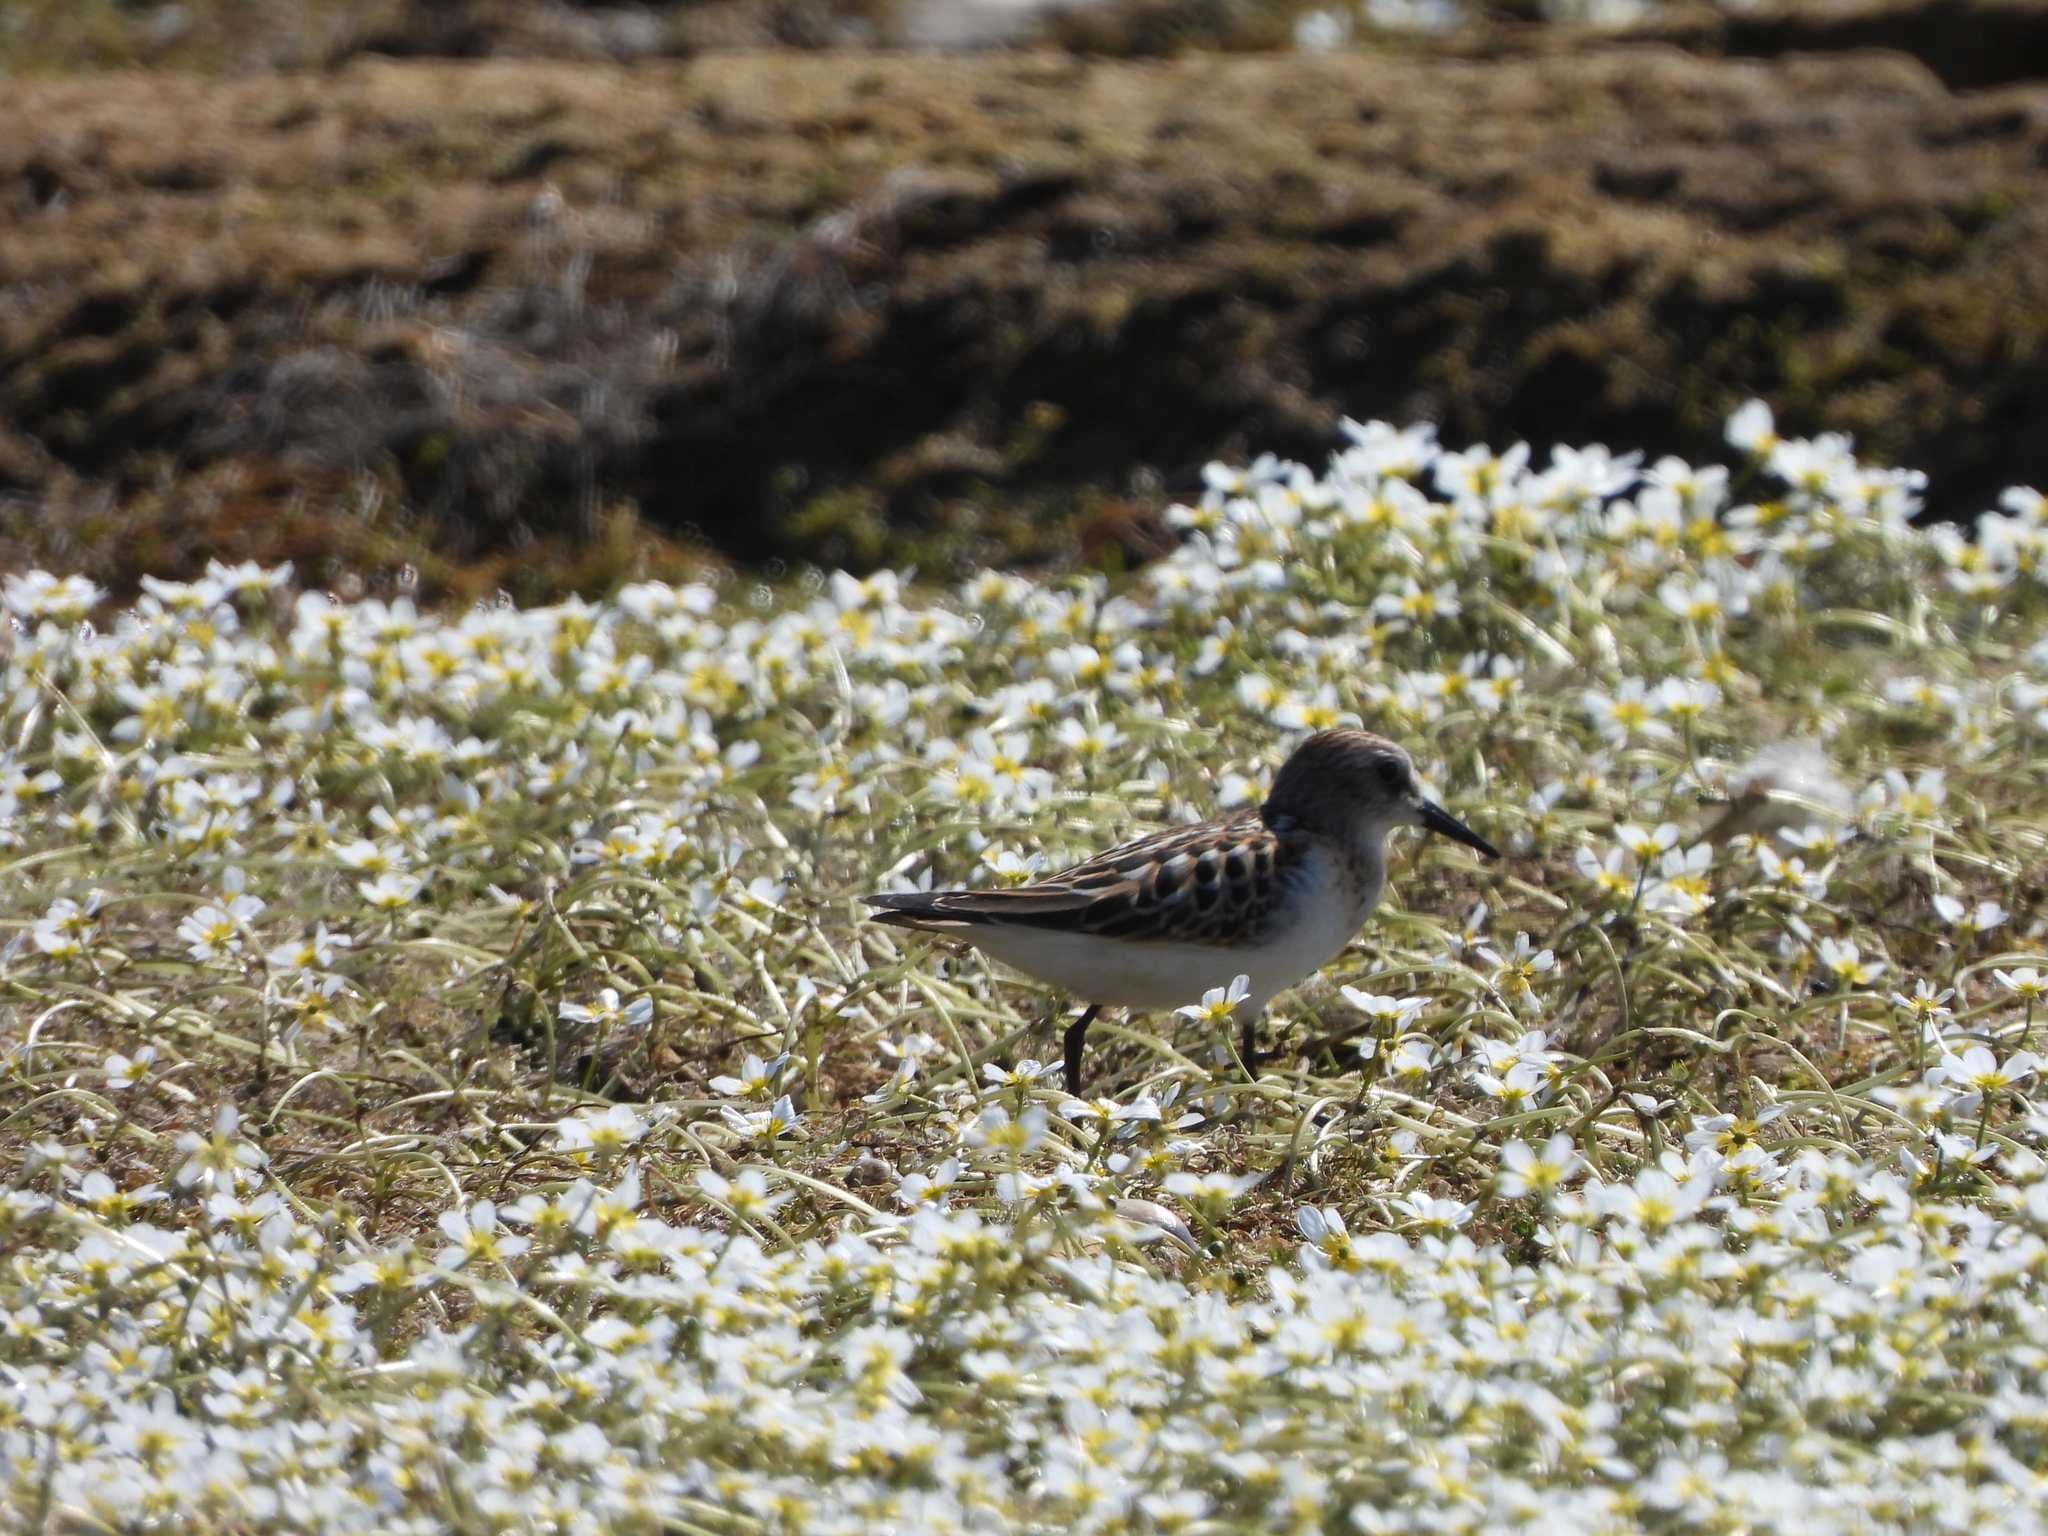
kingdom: Animalia
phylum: Chordata
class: Aves
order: Charadriiformes
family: Scolopacidae
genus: Calidris
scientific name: Calidris minuta
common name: Little stint
